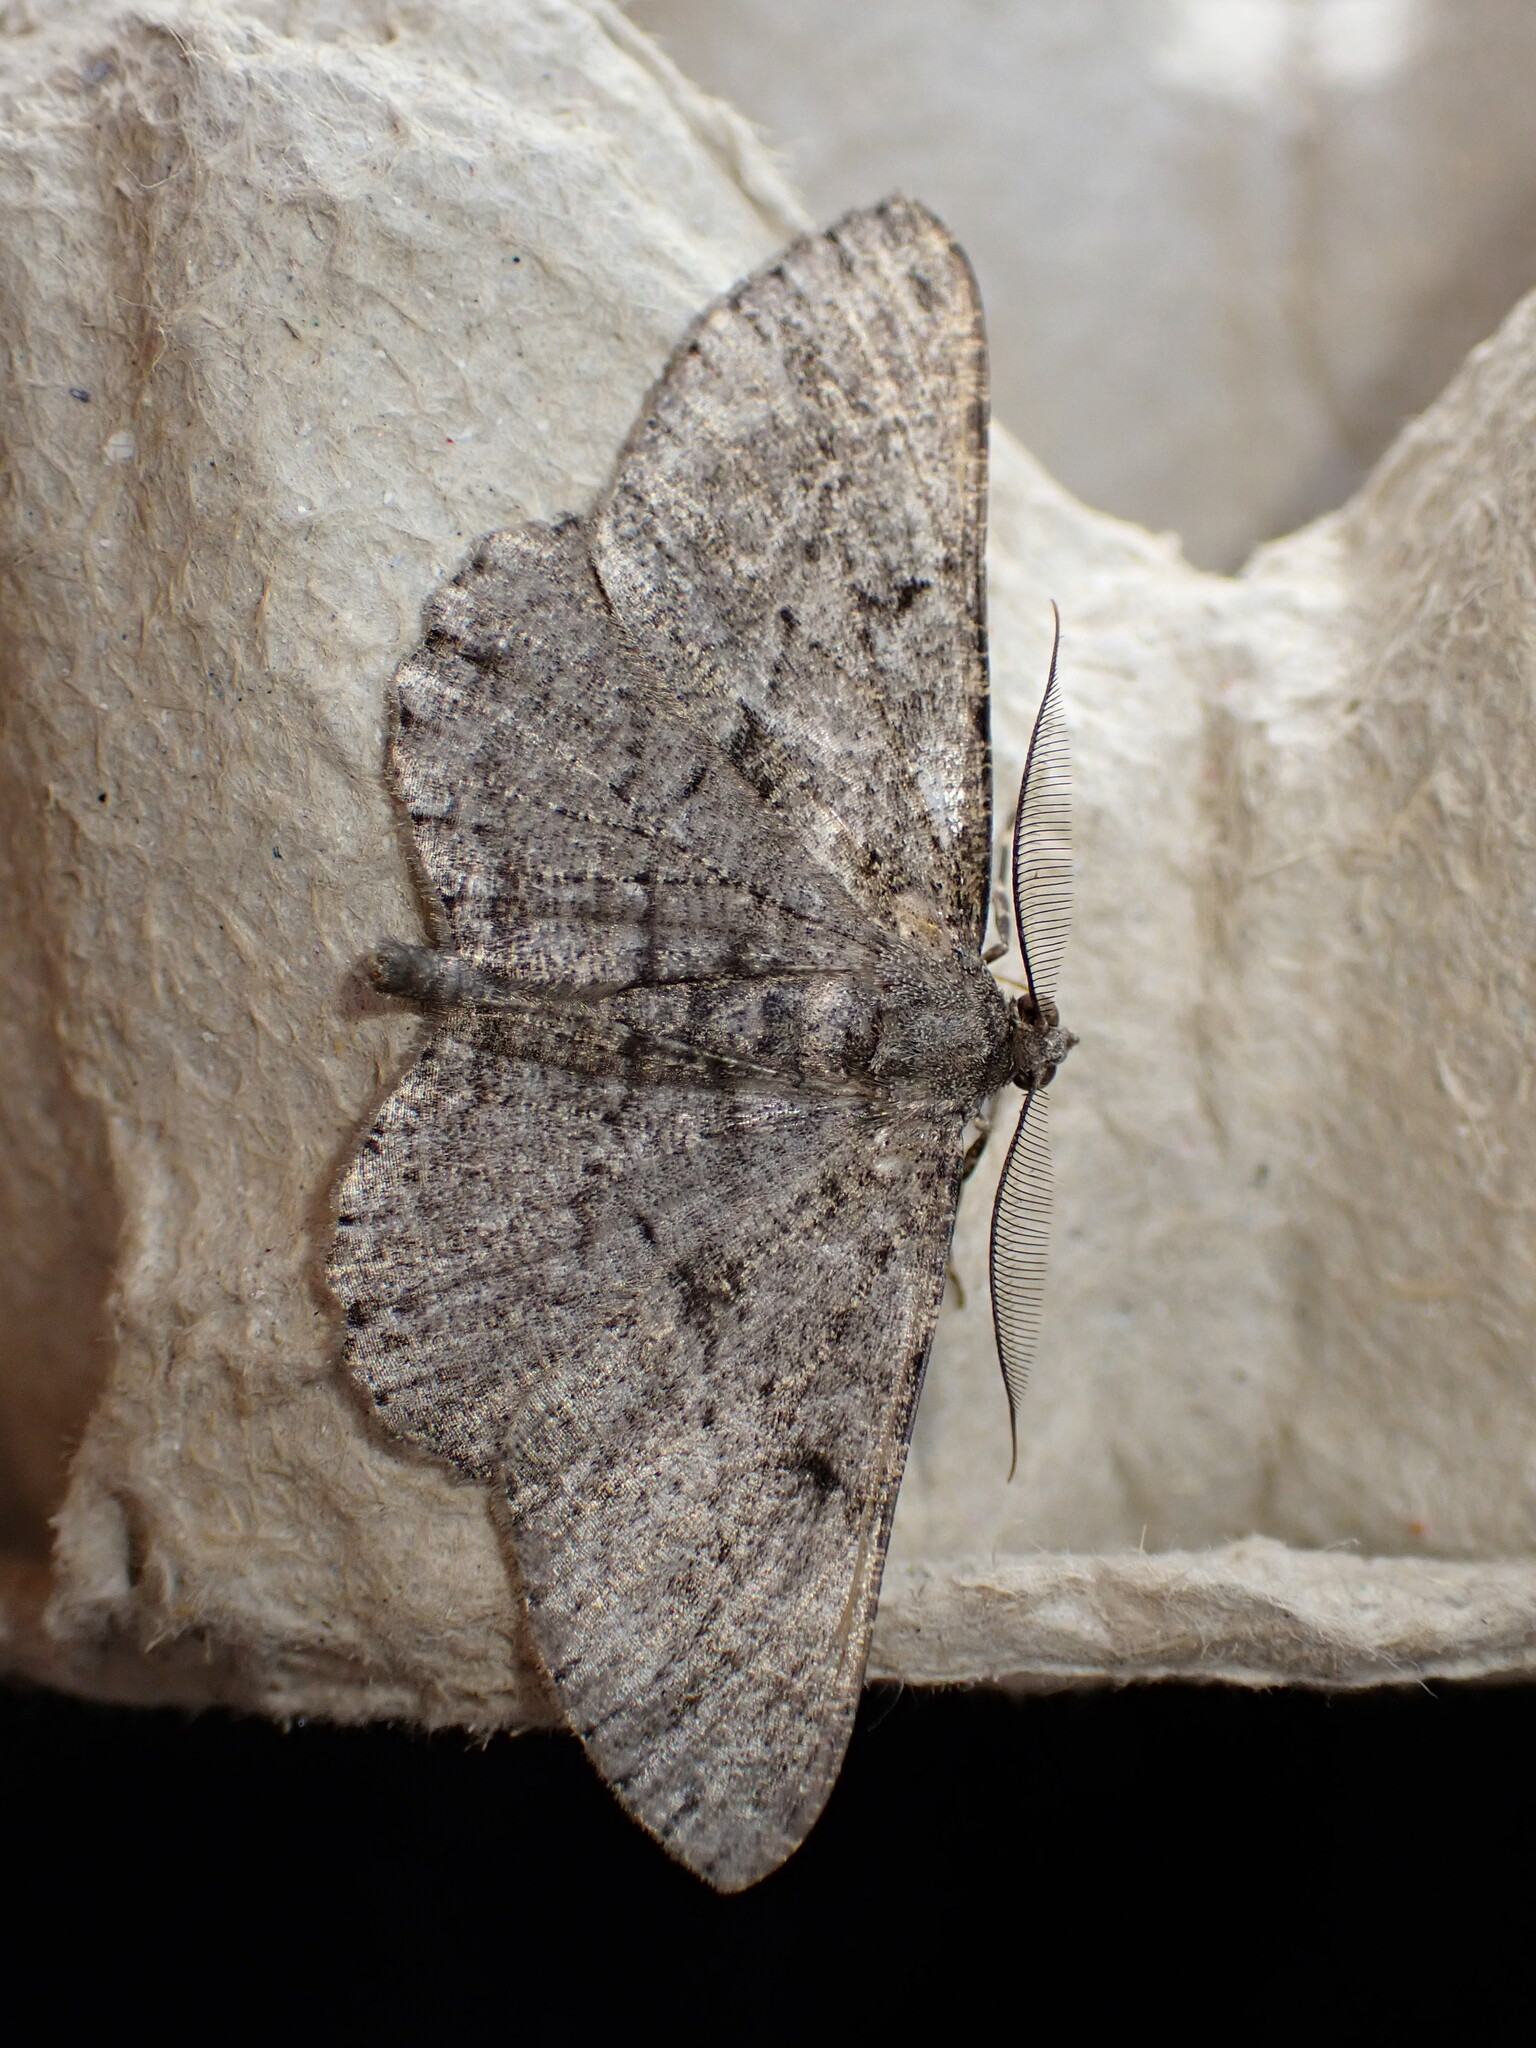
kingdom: Animalia
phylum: Arthropoda
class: Insecta
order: Lepidoptera
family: Geometridae
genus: Peribatodes
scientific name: Peribatodes rhomboidaria
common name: Willow beauty
